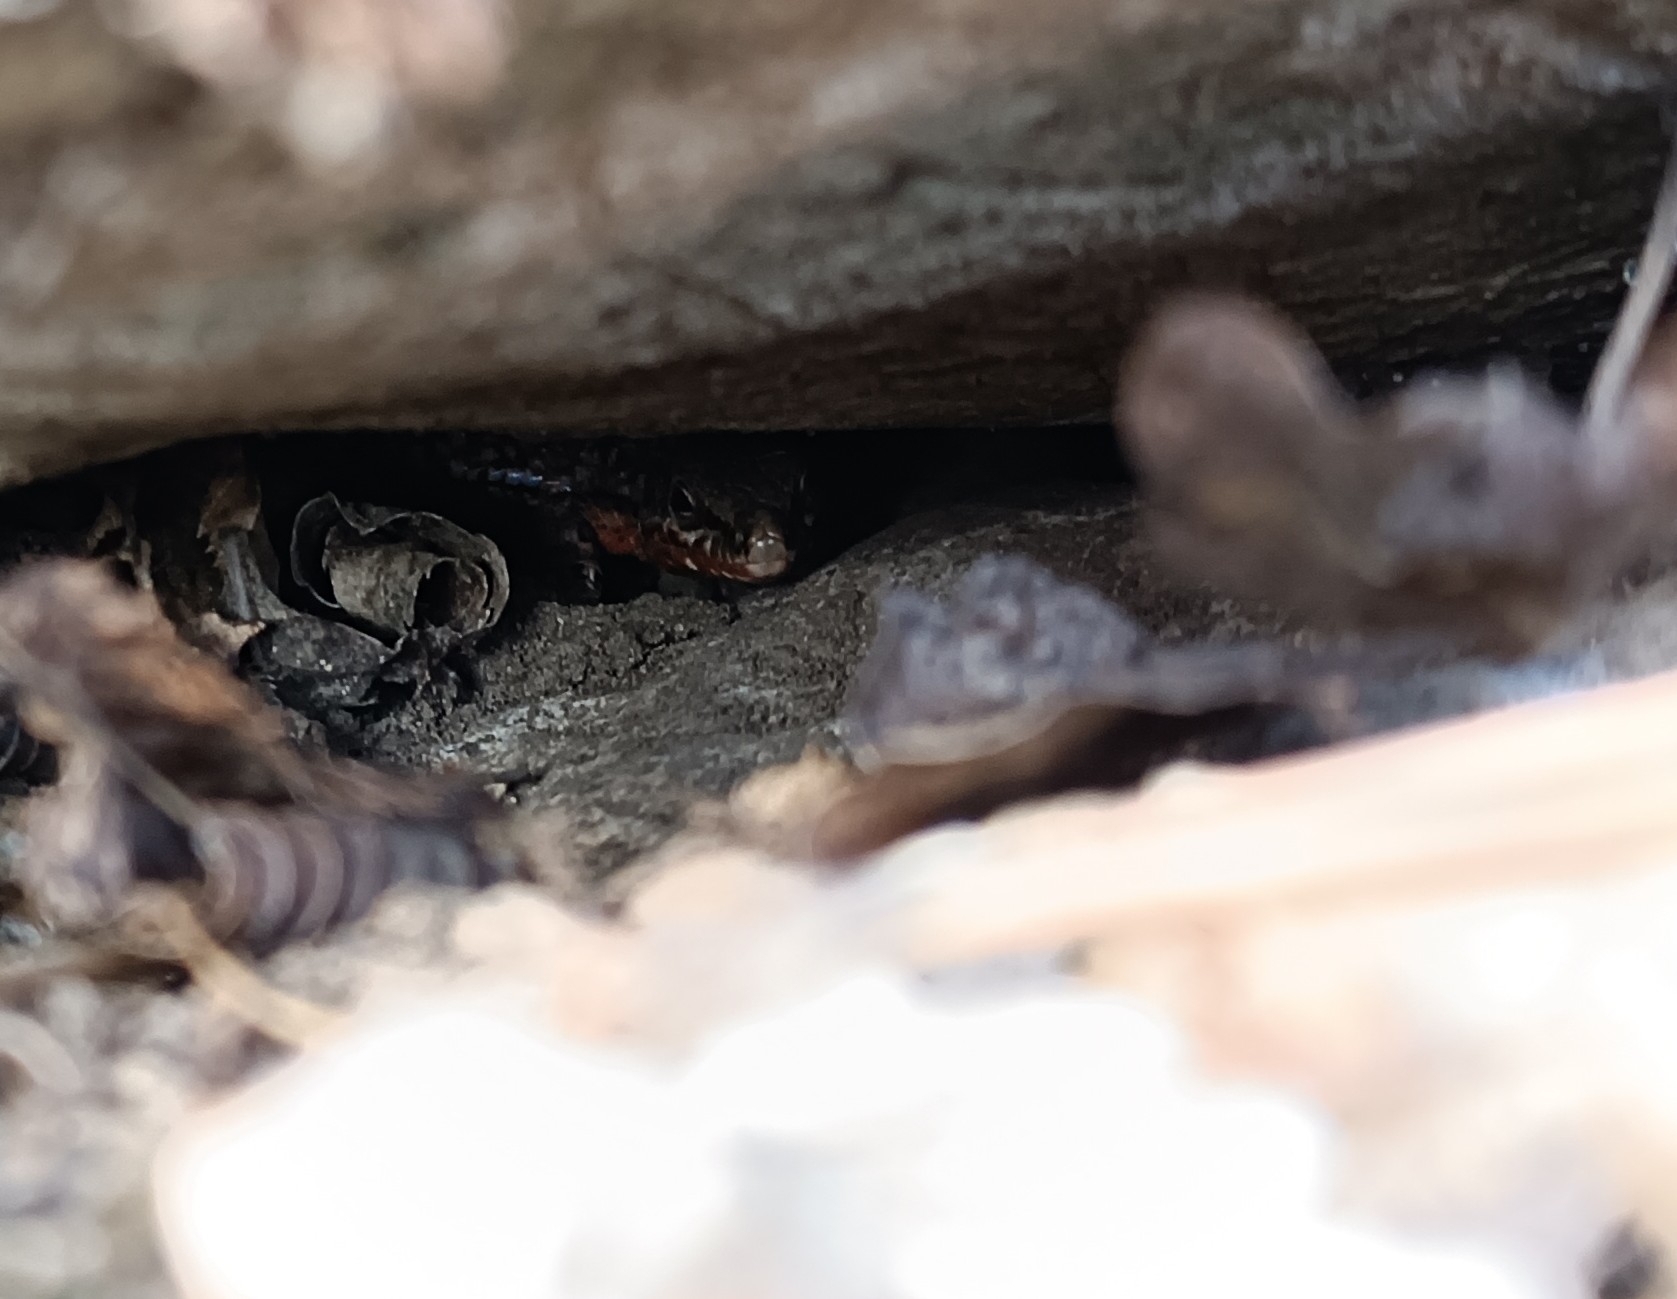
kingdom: Animalia
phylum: Chordata
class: Squamata
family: Lacertidae
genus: Podarcis
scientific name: Podarcis muralis
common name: Common wall lizard
